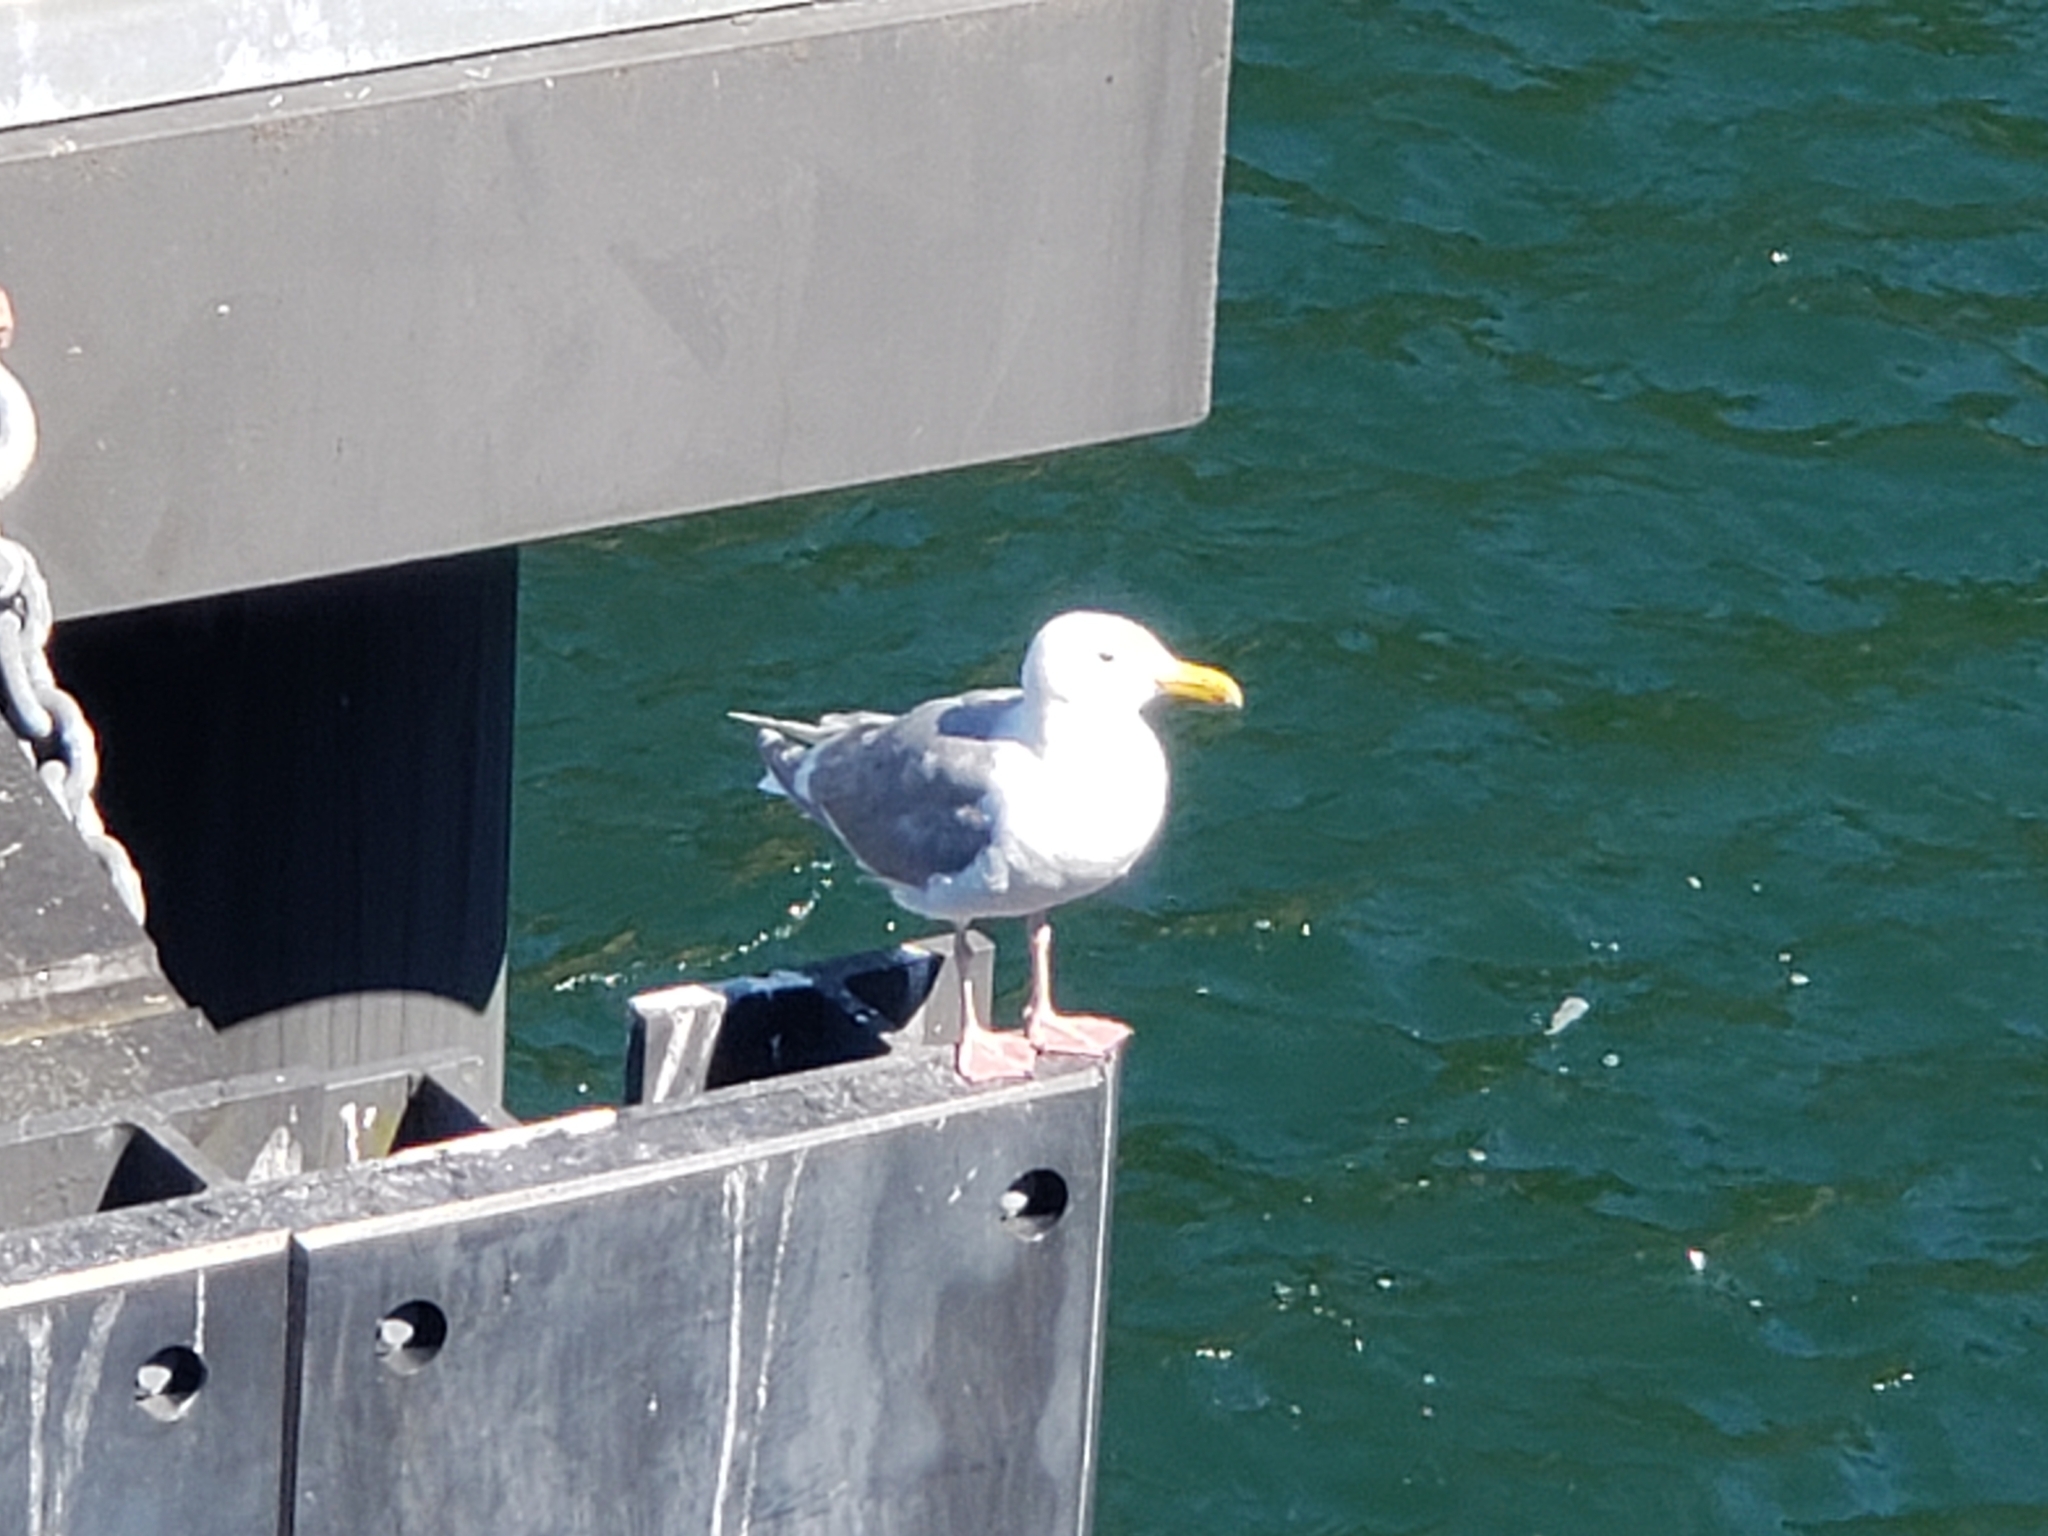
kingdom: Animalia
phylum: Chordata
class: Aves
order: Charadriiformes
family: Laridae
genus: Larus
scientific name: Larus glaucescens
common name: Glaucous-winged gull
